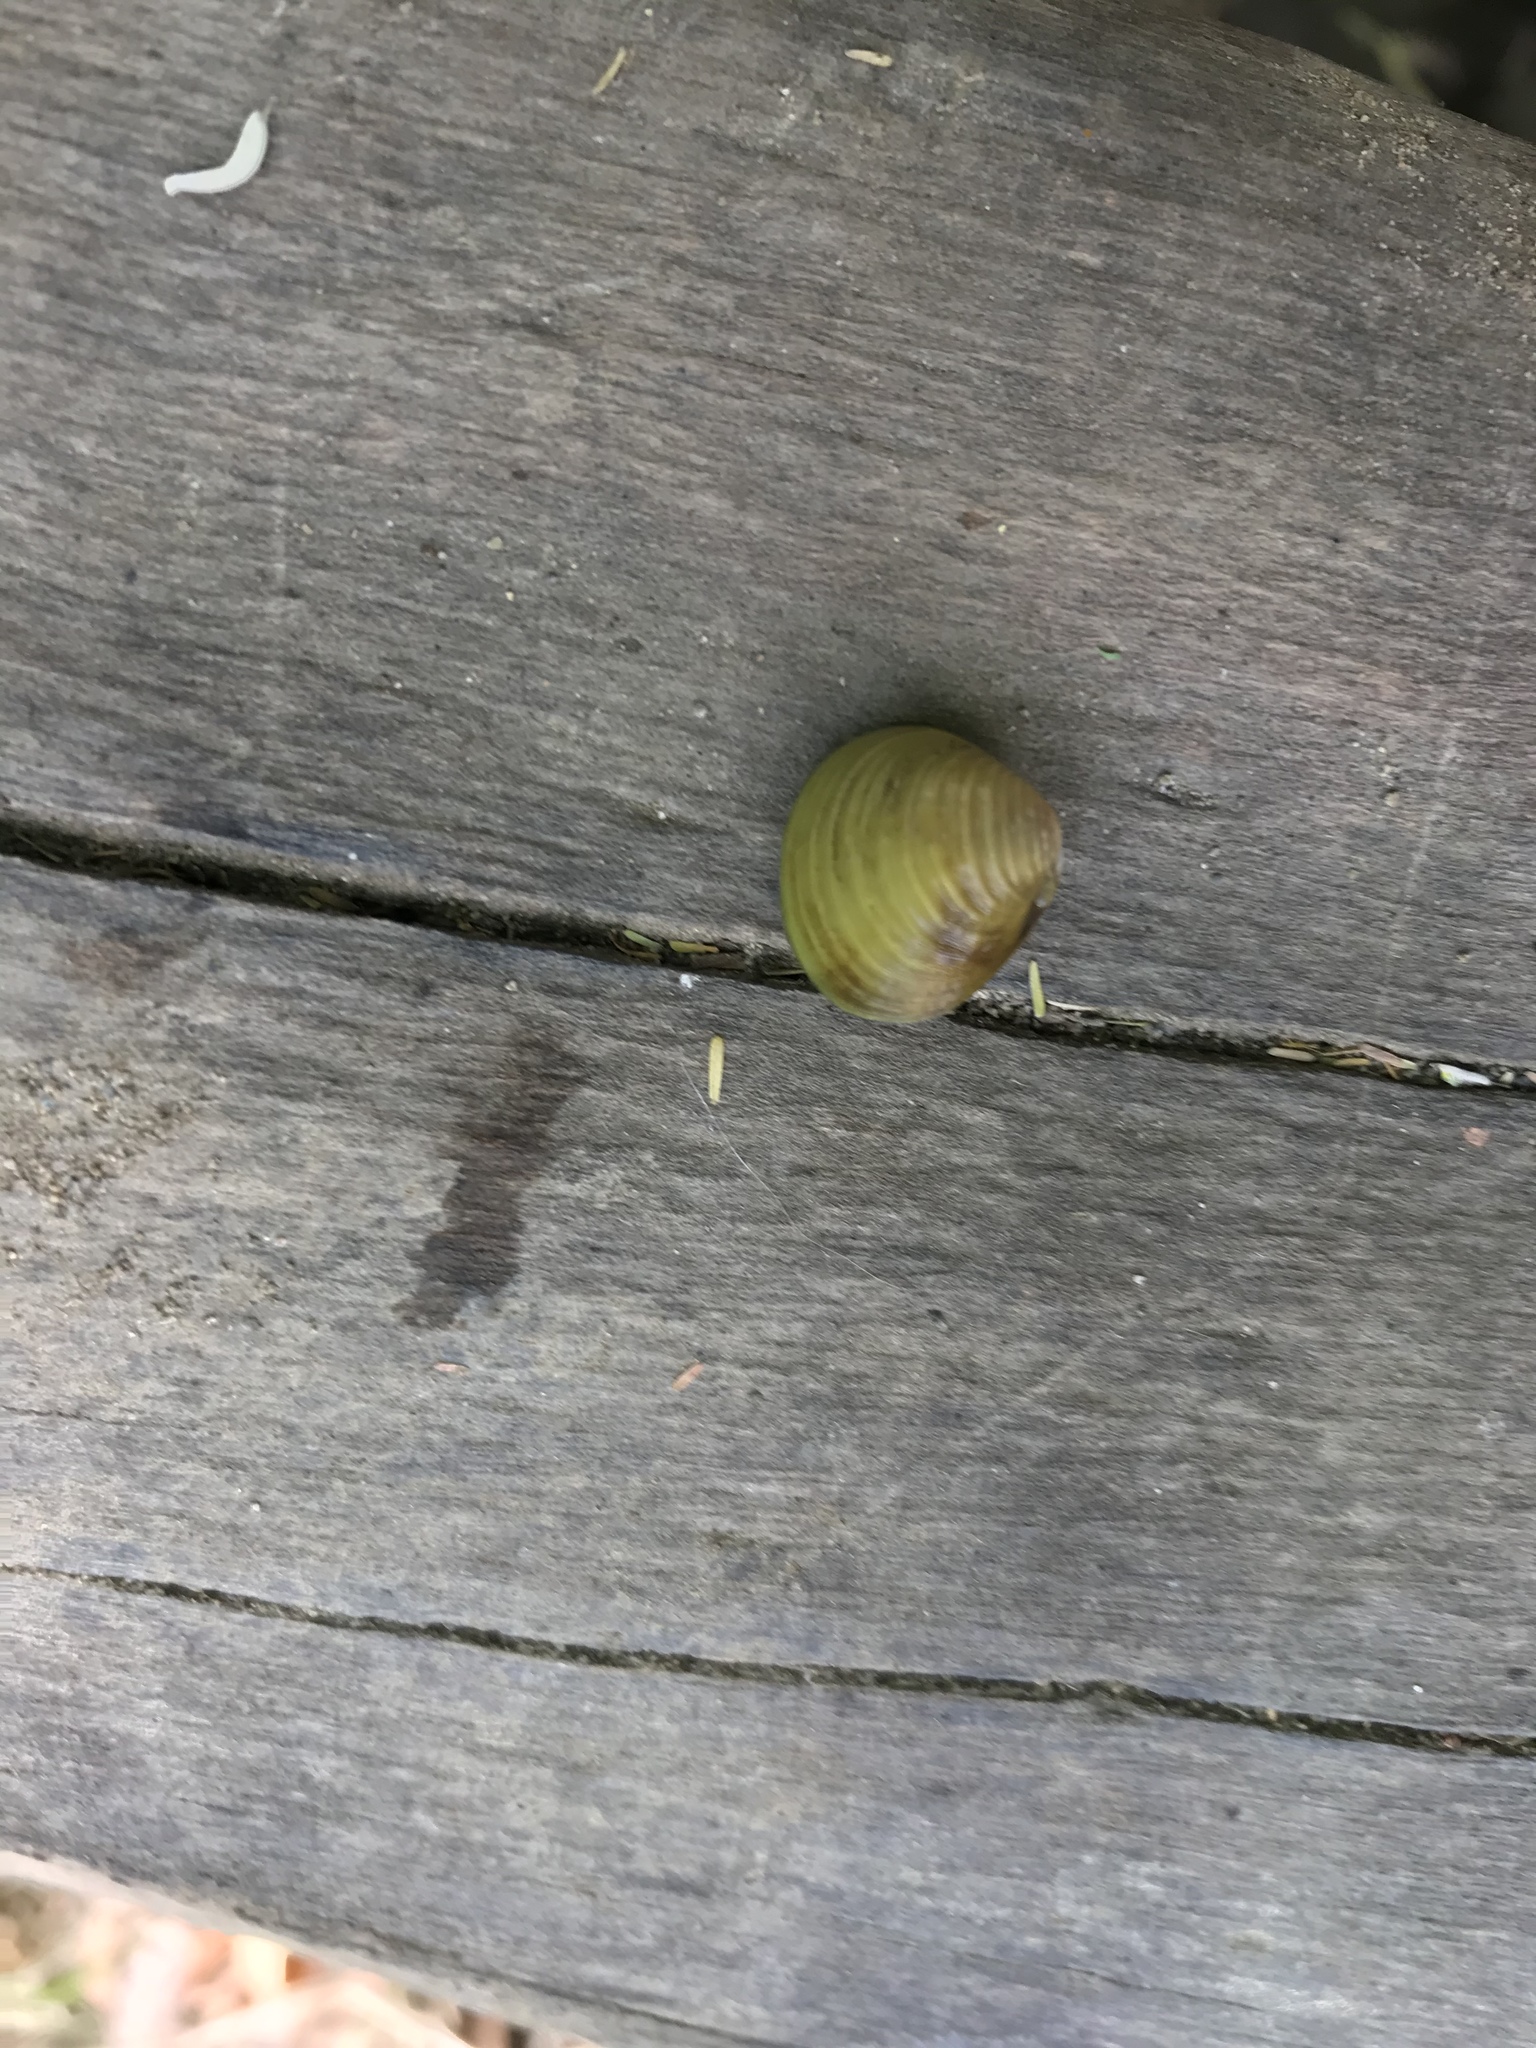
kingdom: Animalia
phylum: Mollusca
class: Bivalvia
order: Venerida
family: Cyrenidae
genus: Corbicula
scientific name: Corbicula fluminea
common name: Asian clam
